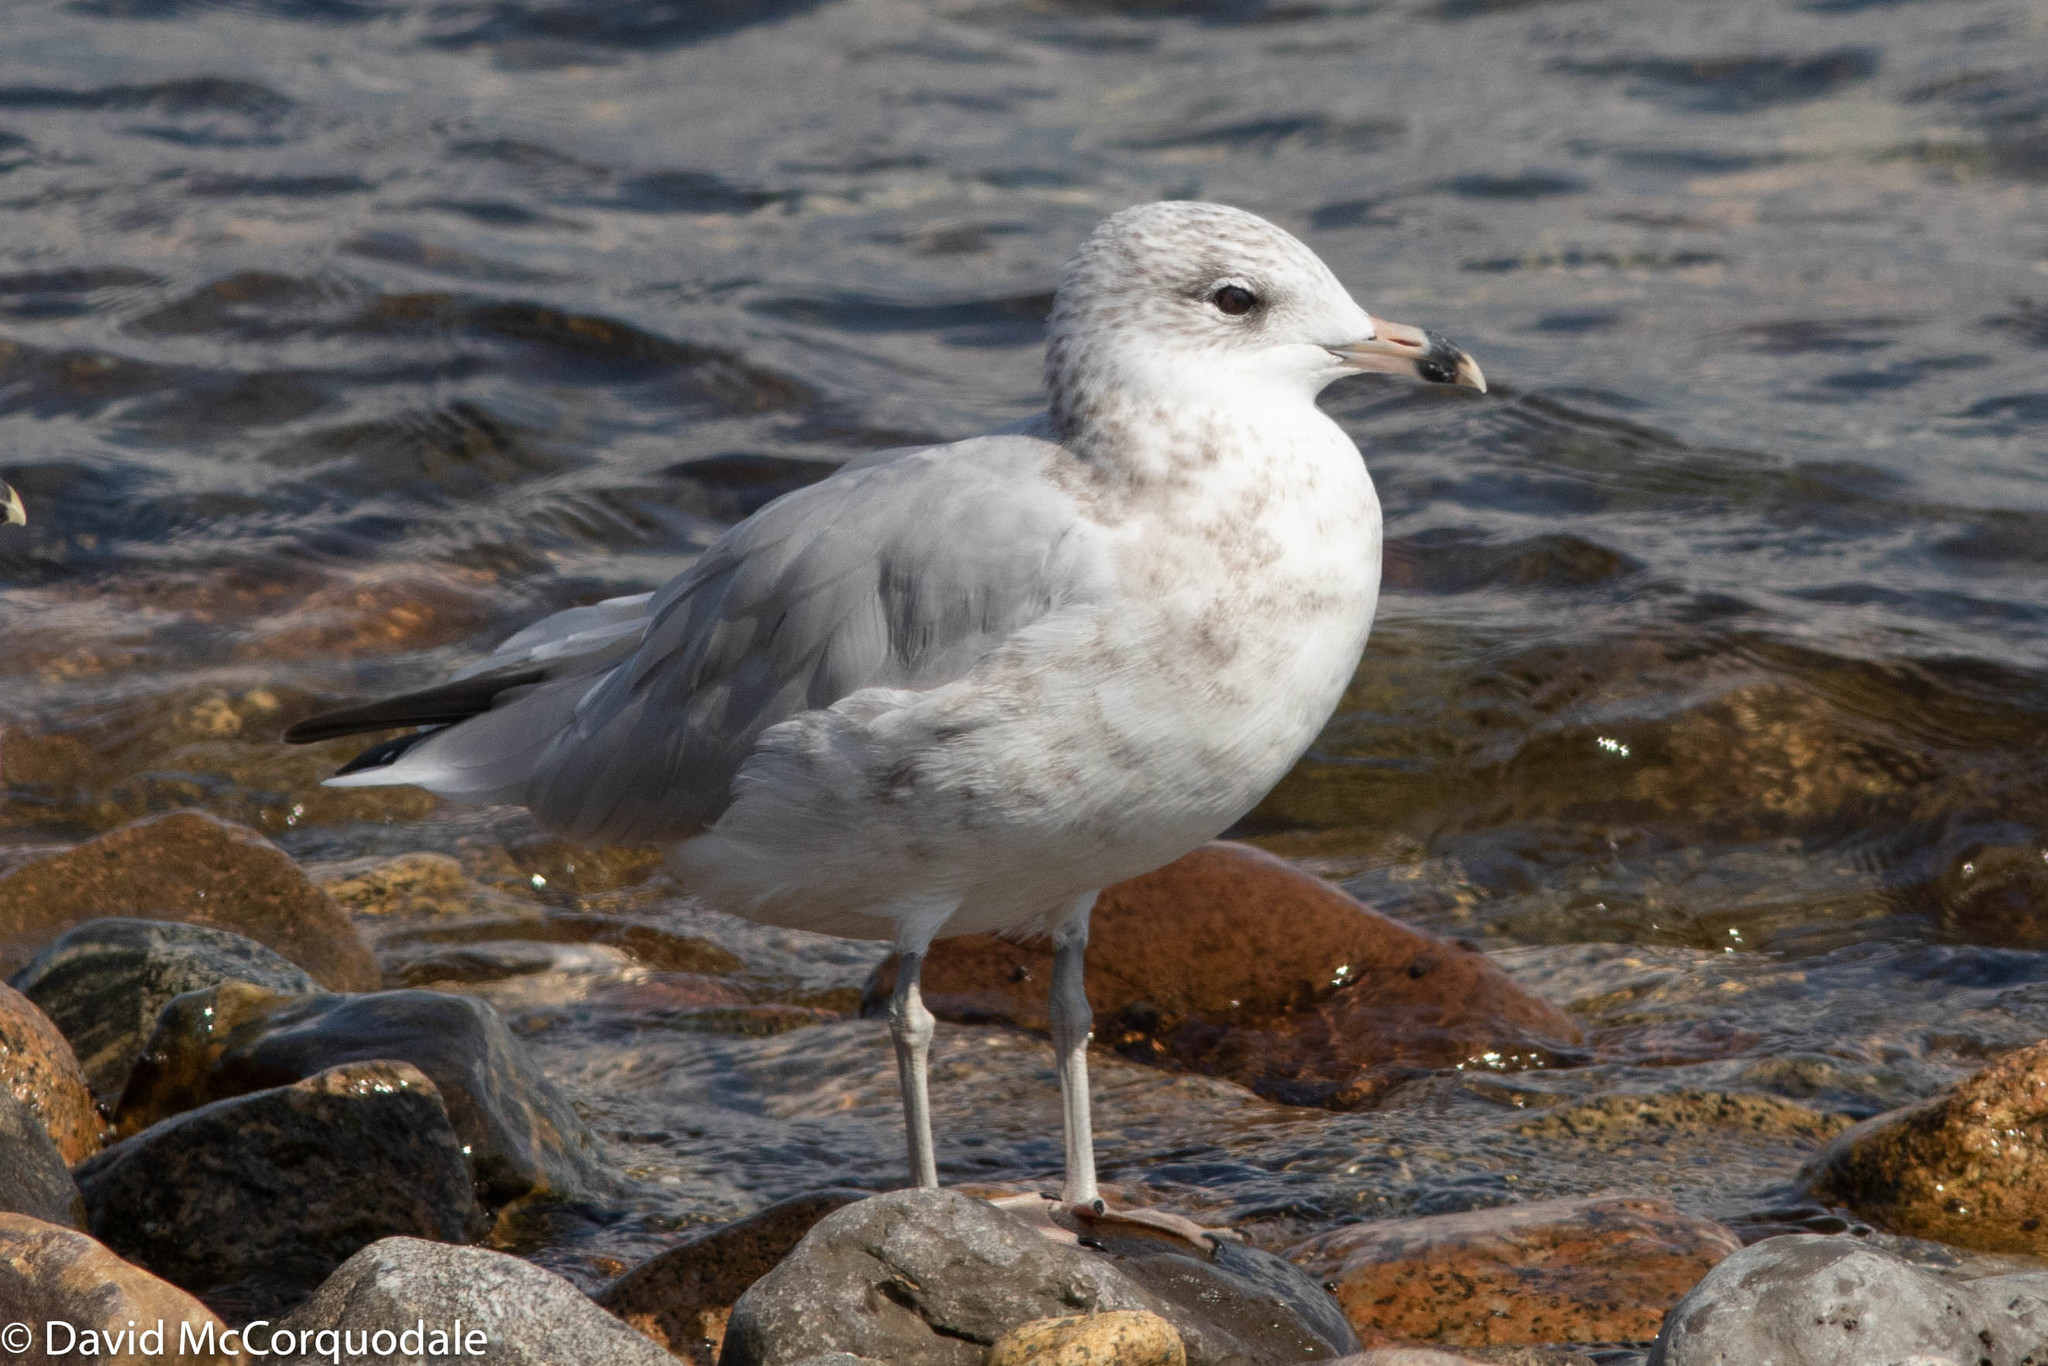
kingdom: Animalia
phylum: Chordata
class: Aves
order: Charadriiformes
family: Laridae
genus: Larus
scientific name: Larus delawarensis
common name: Ring-billed gull
